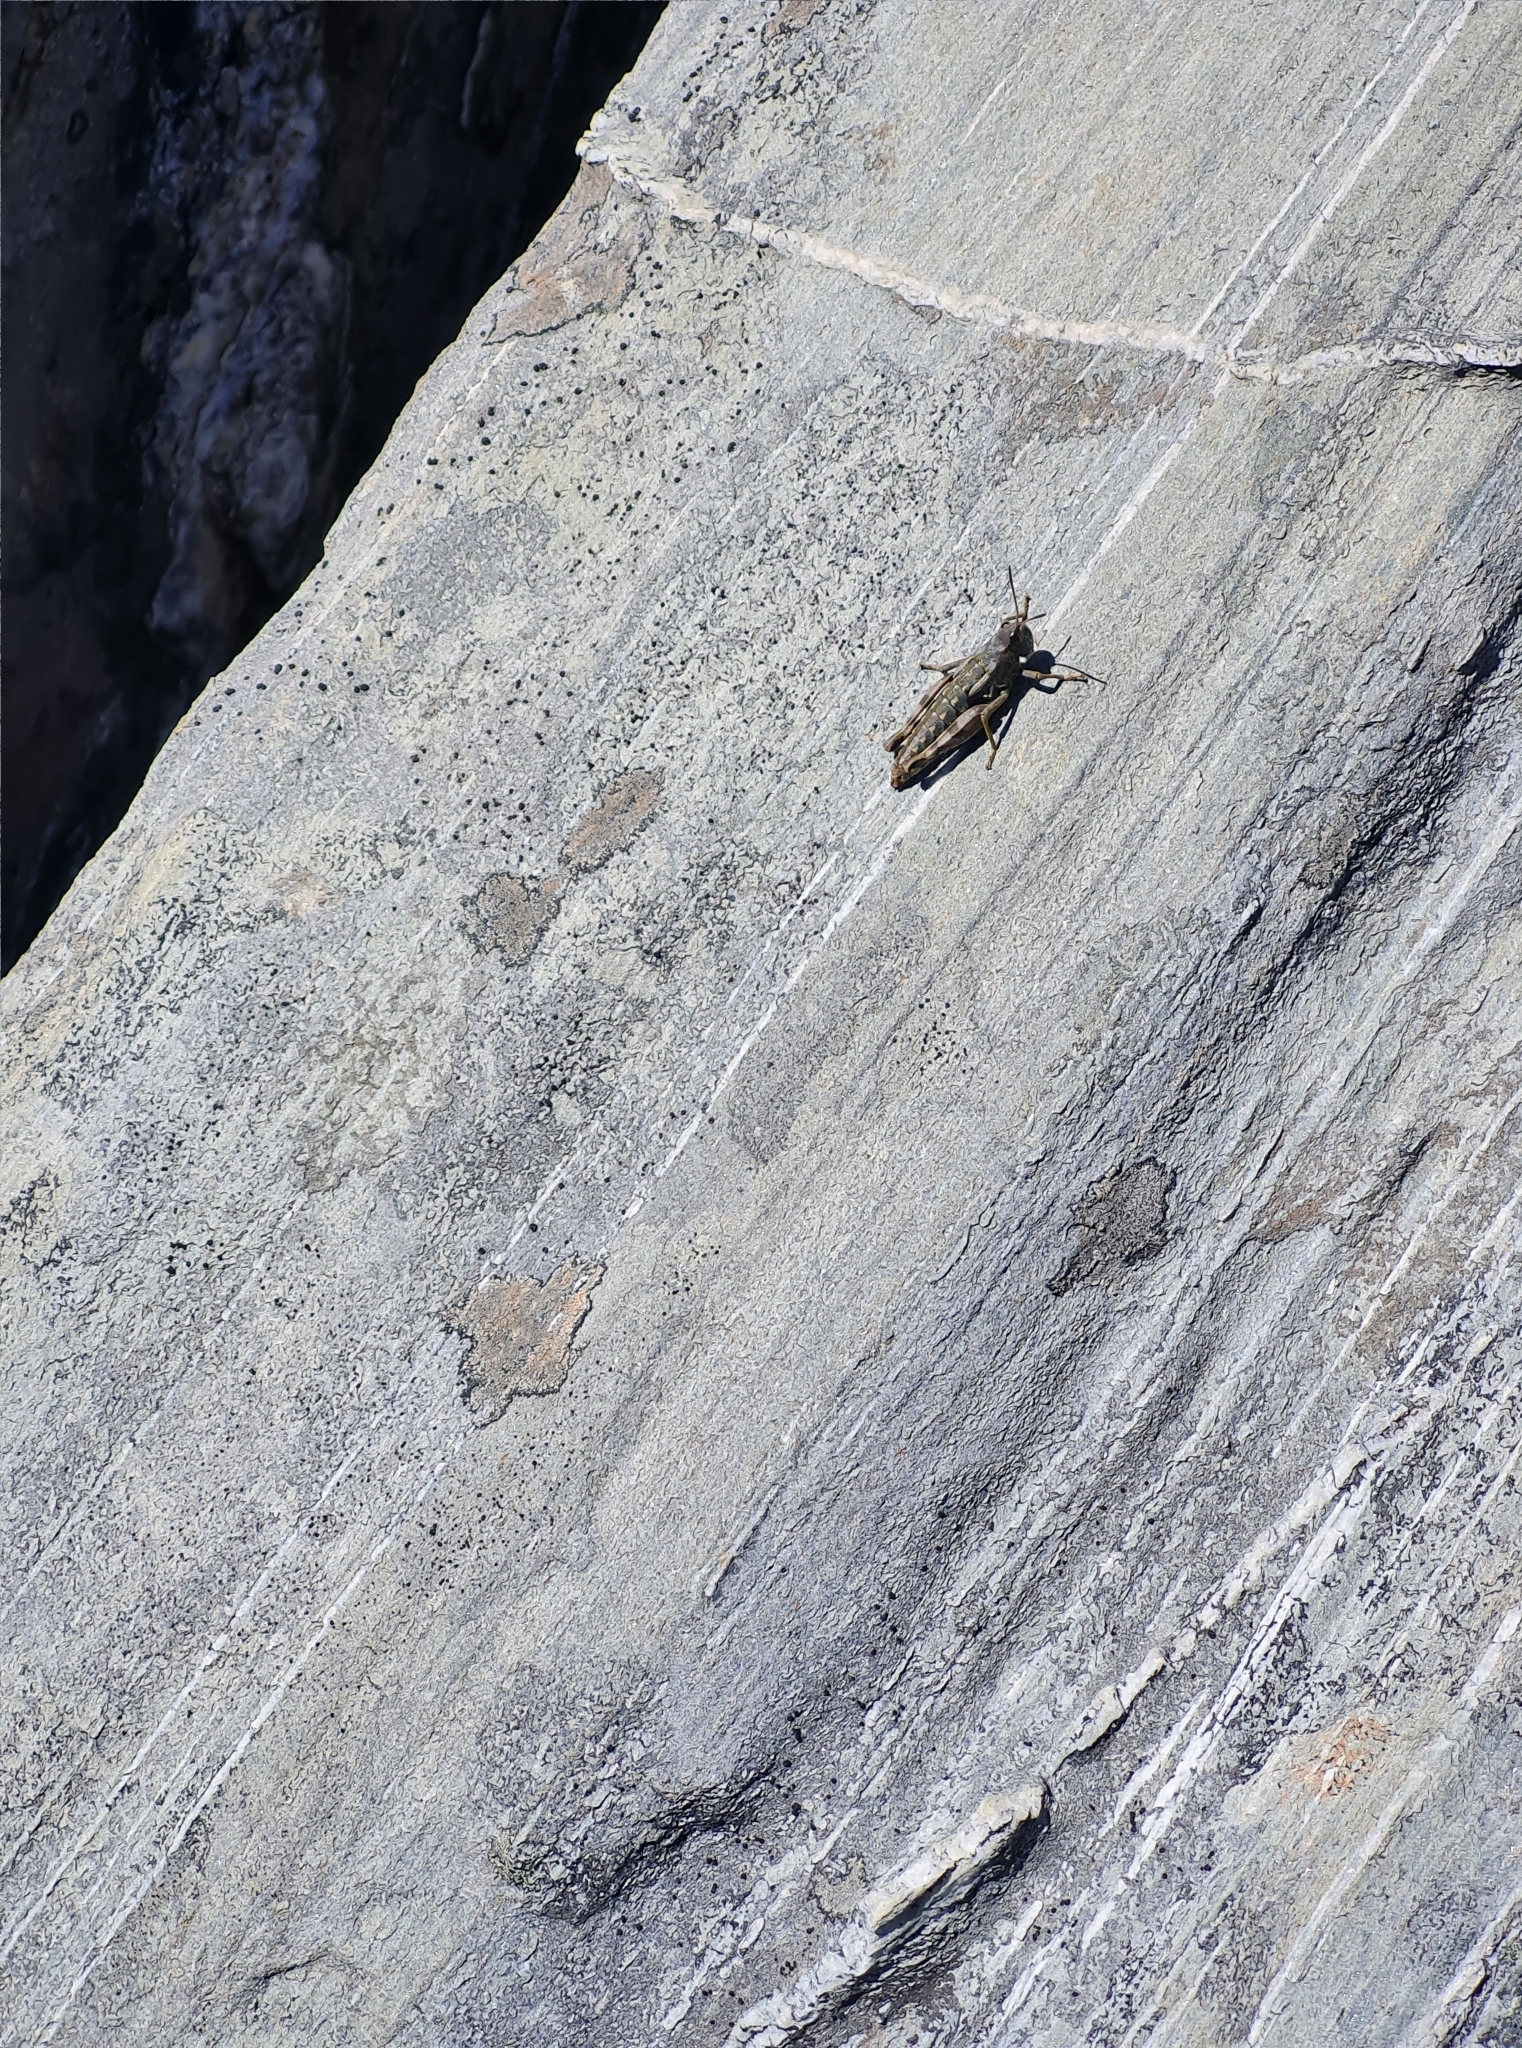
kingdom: Animalia
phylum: Arthropoda
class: Insecta
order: Orthoptera
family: Acrididae
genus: Sigaus
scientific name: Sigaus australis
